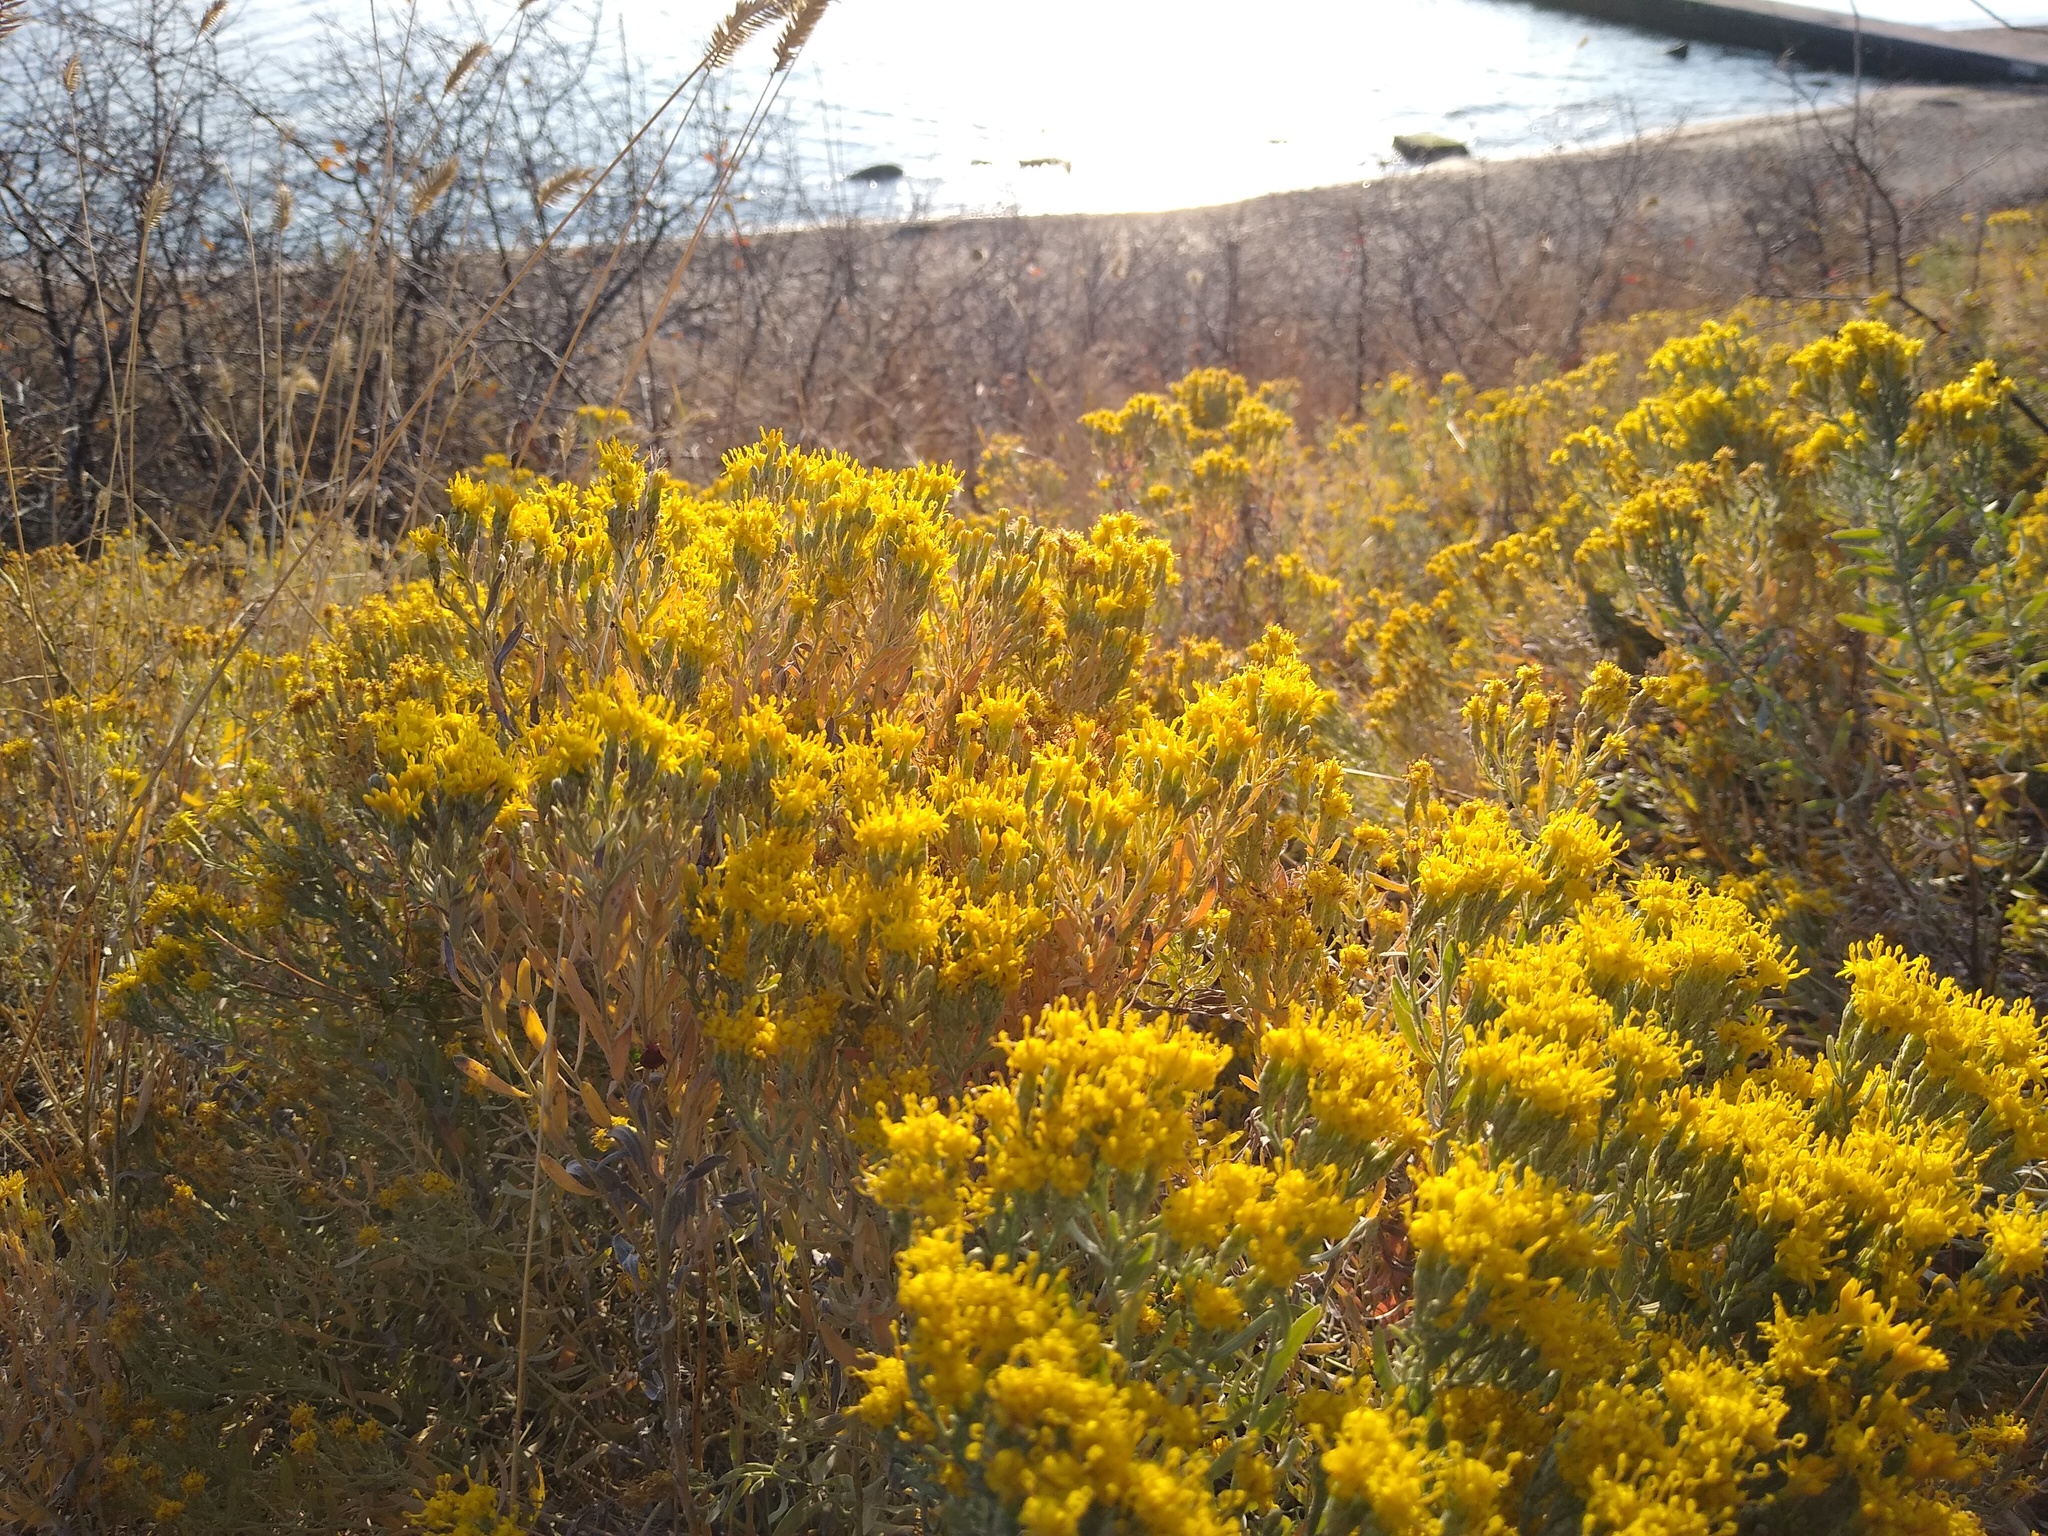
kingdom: Plantae
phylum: Tracheophyta
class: Magnoliopsida
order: Asterales
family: Asteraceae
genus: Galatella
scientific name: Galatella villosa
